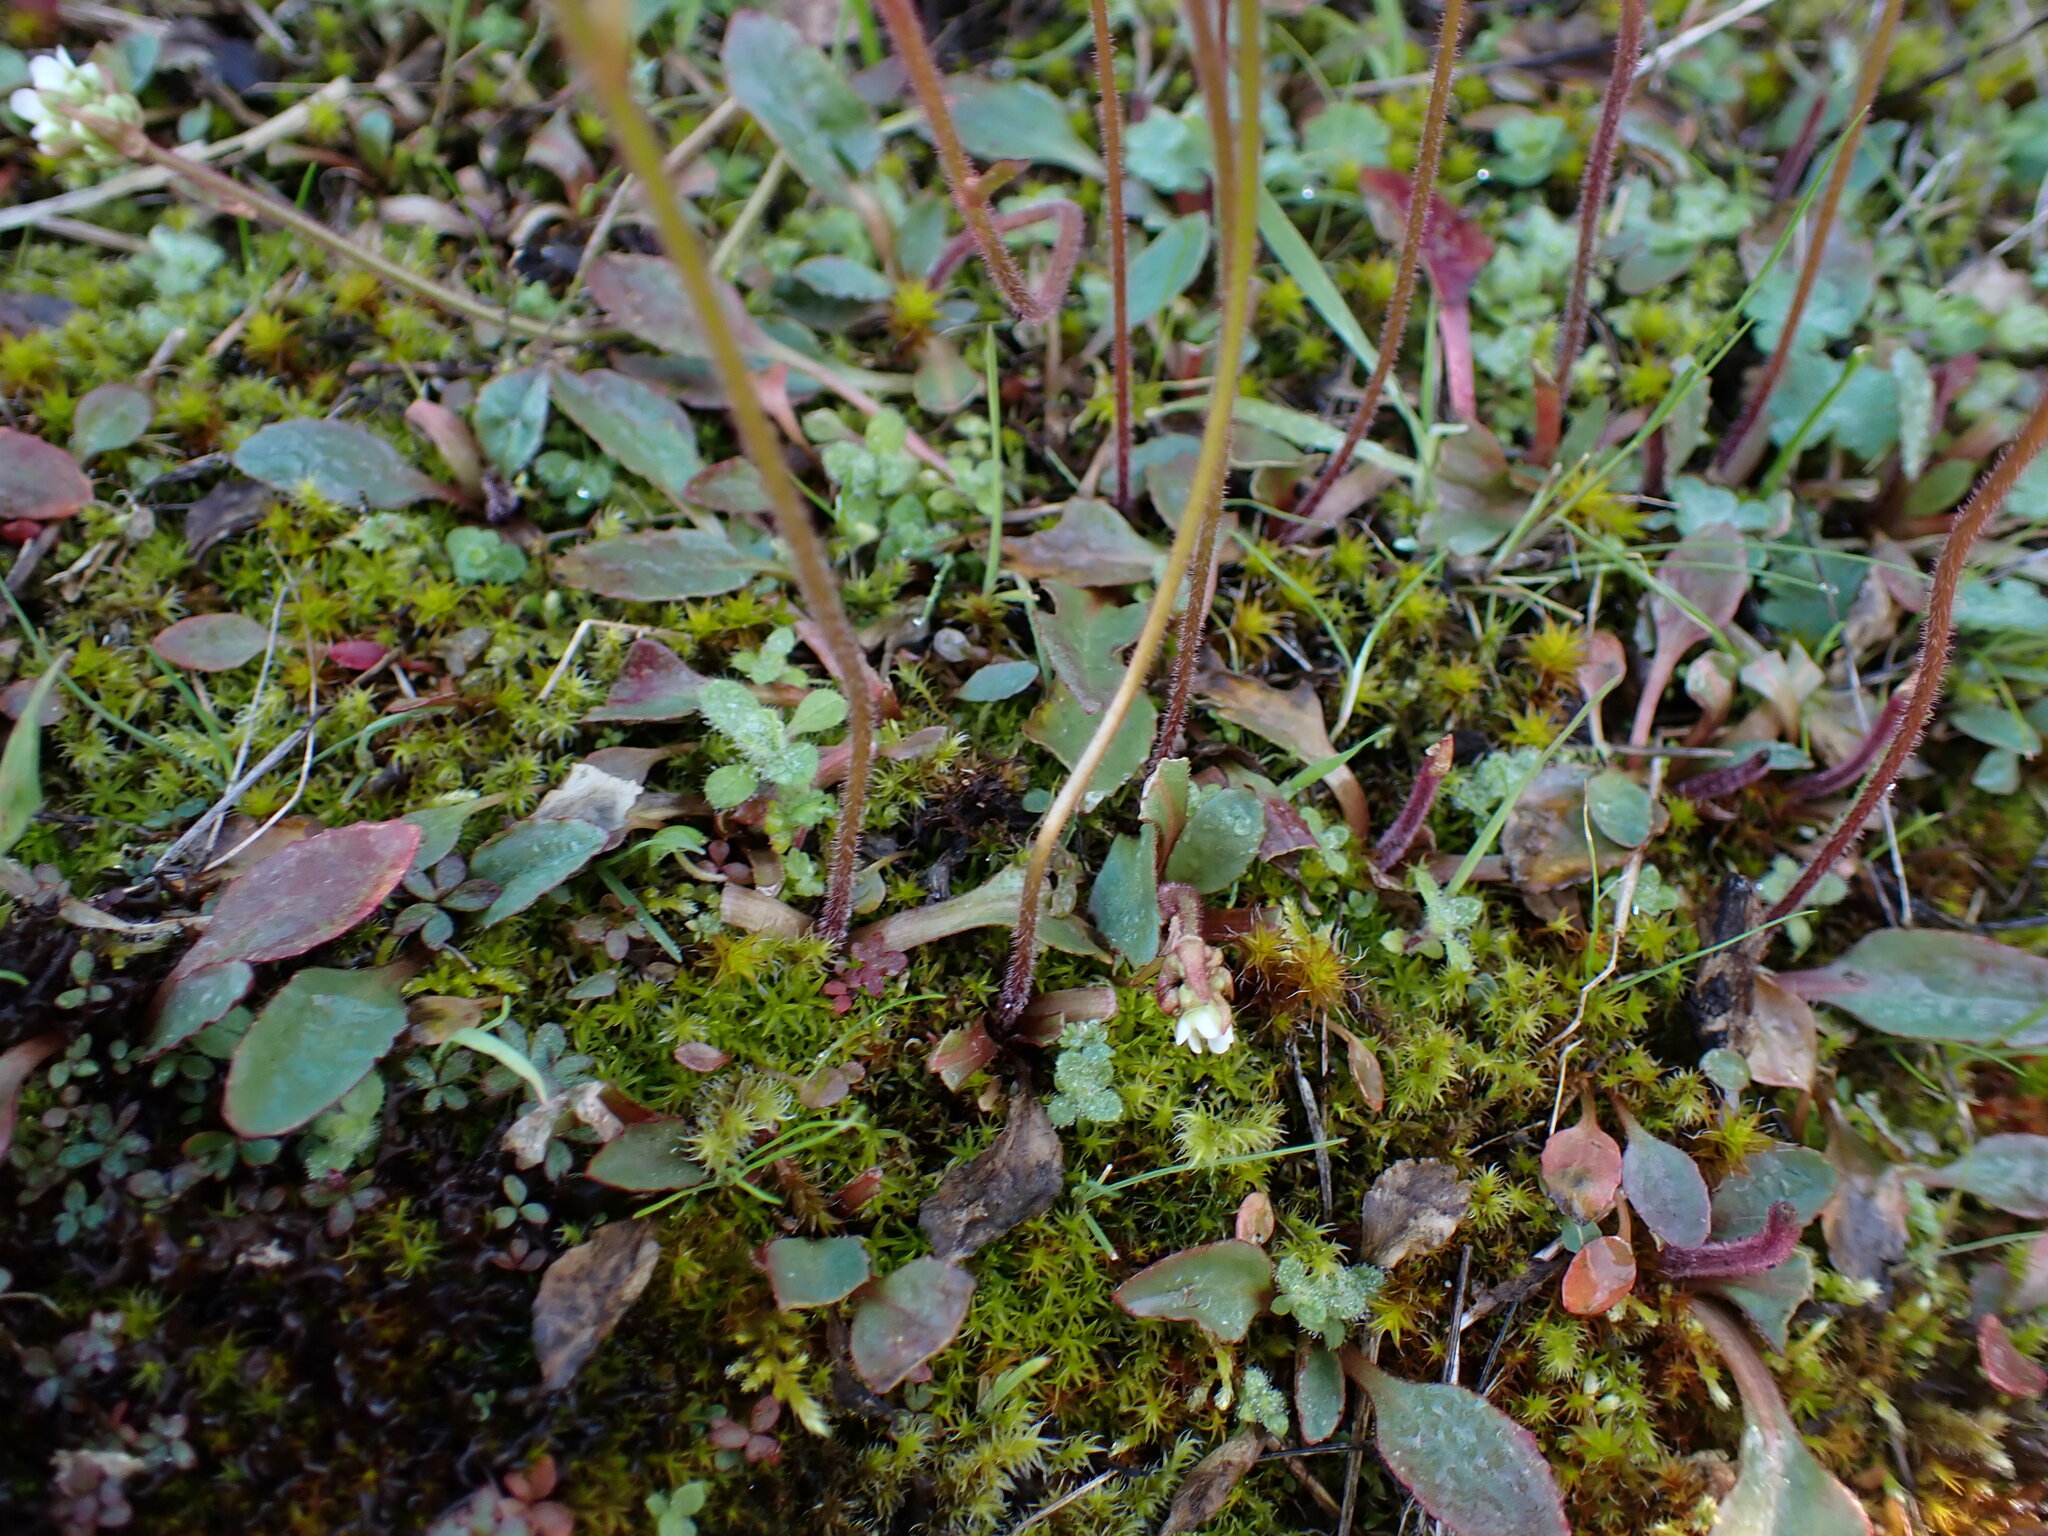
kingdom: Plantae
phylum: Tracheophyta
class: Magnoliopsida
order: Saxifragales
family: Saxifragaceae
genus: Micranthes
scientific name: Micranthes integrifolia
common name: Wholeleaf saxifrage
